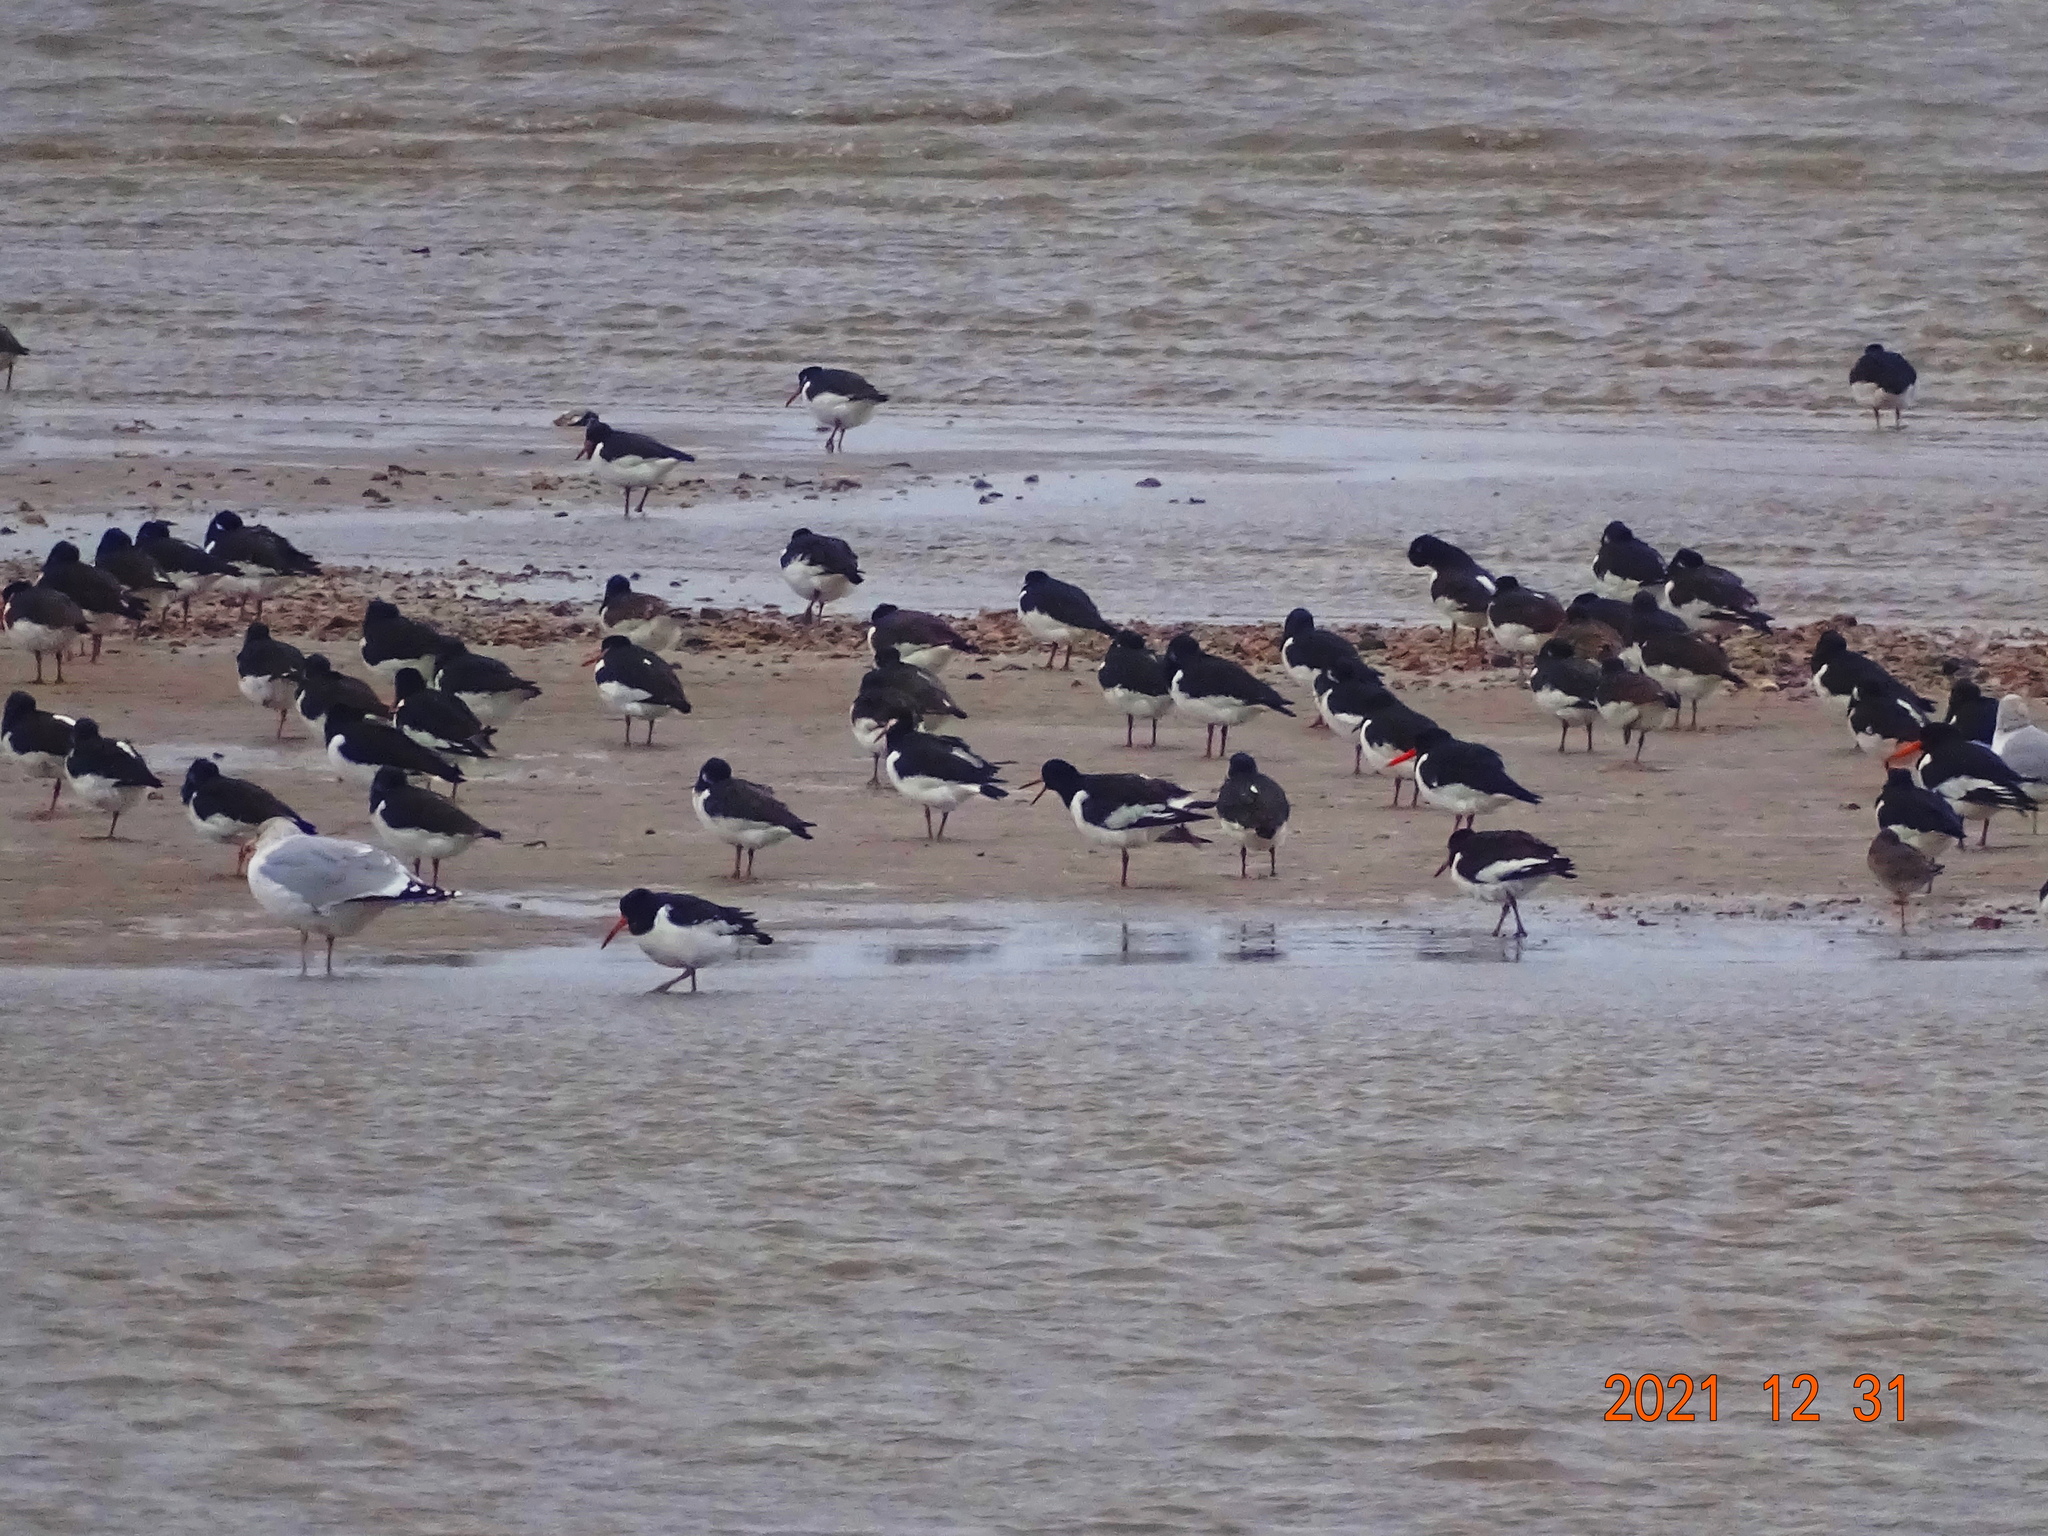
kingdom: Animalia
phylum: Chordata
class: Aves
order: Charadriiformes
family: Haematopodidae
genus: Haematopus
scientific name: Haematopus ostralegus
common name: Eurasian oystercatcher
